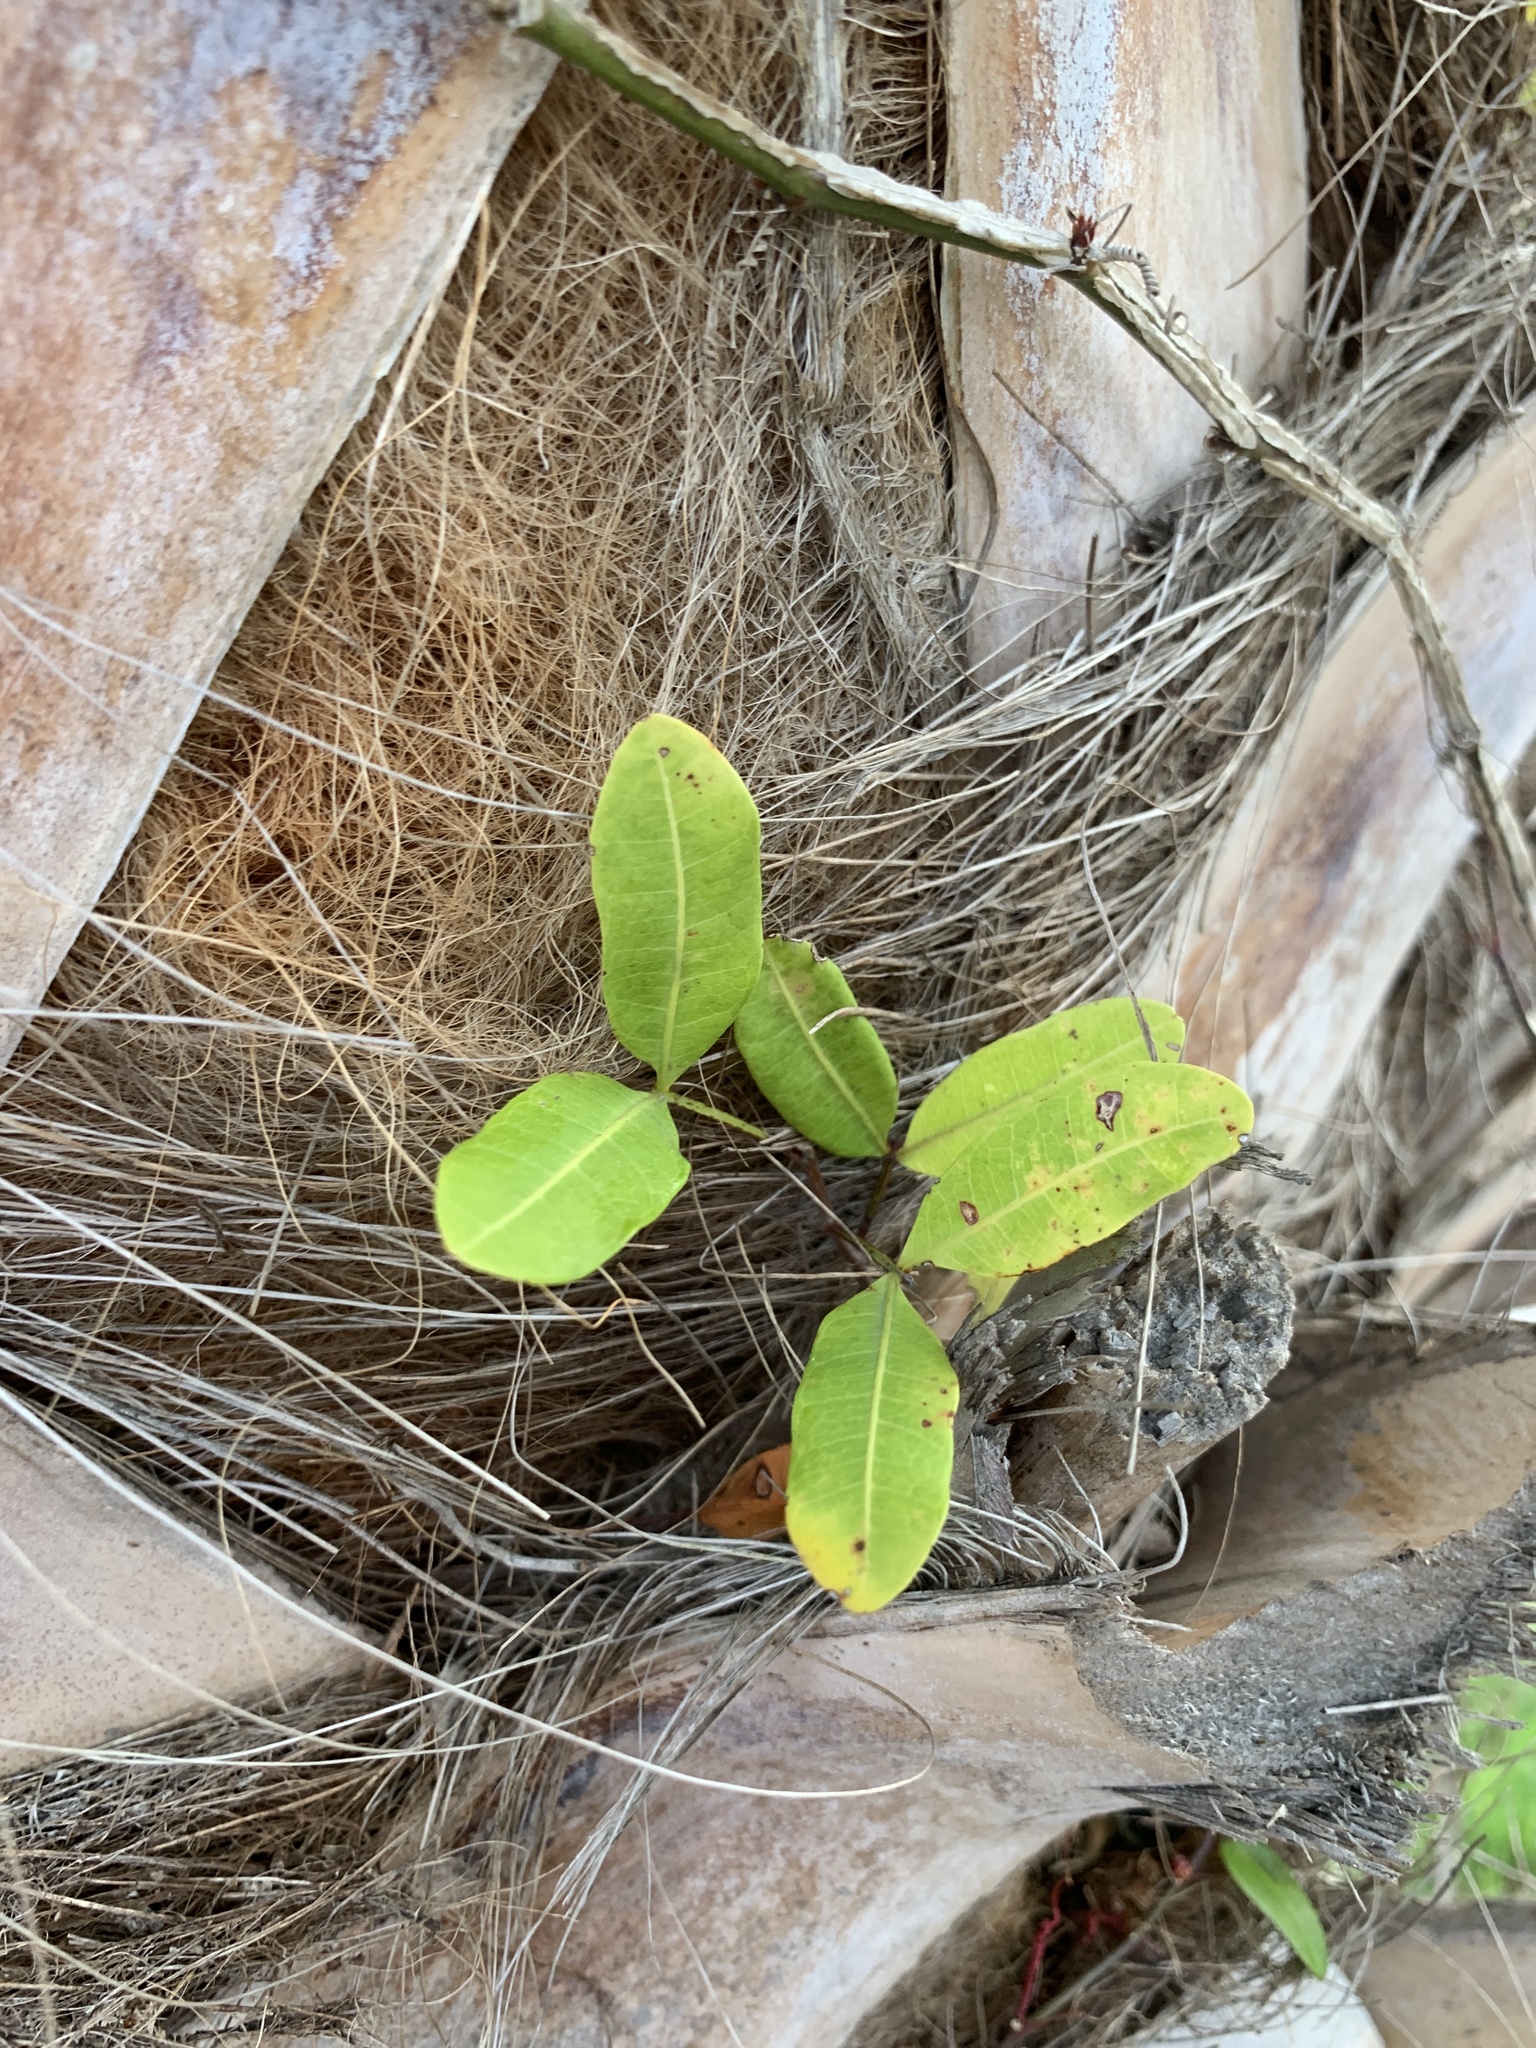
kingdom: Plantae
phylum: Tracheophyta
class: Magnoliopsida
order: Sapindales
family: Sapindaceae
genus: Cupaniopsis
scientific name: Cupaniopsis anacardioides
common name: Carrotwood
